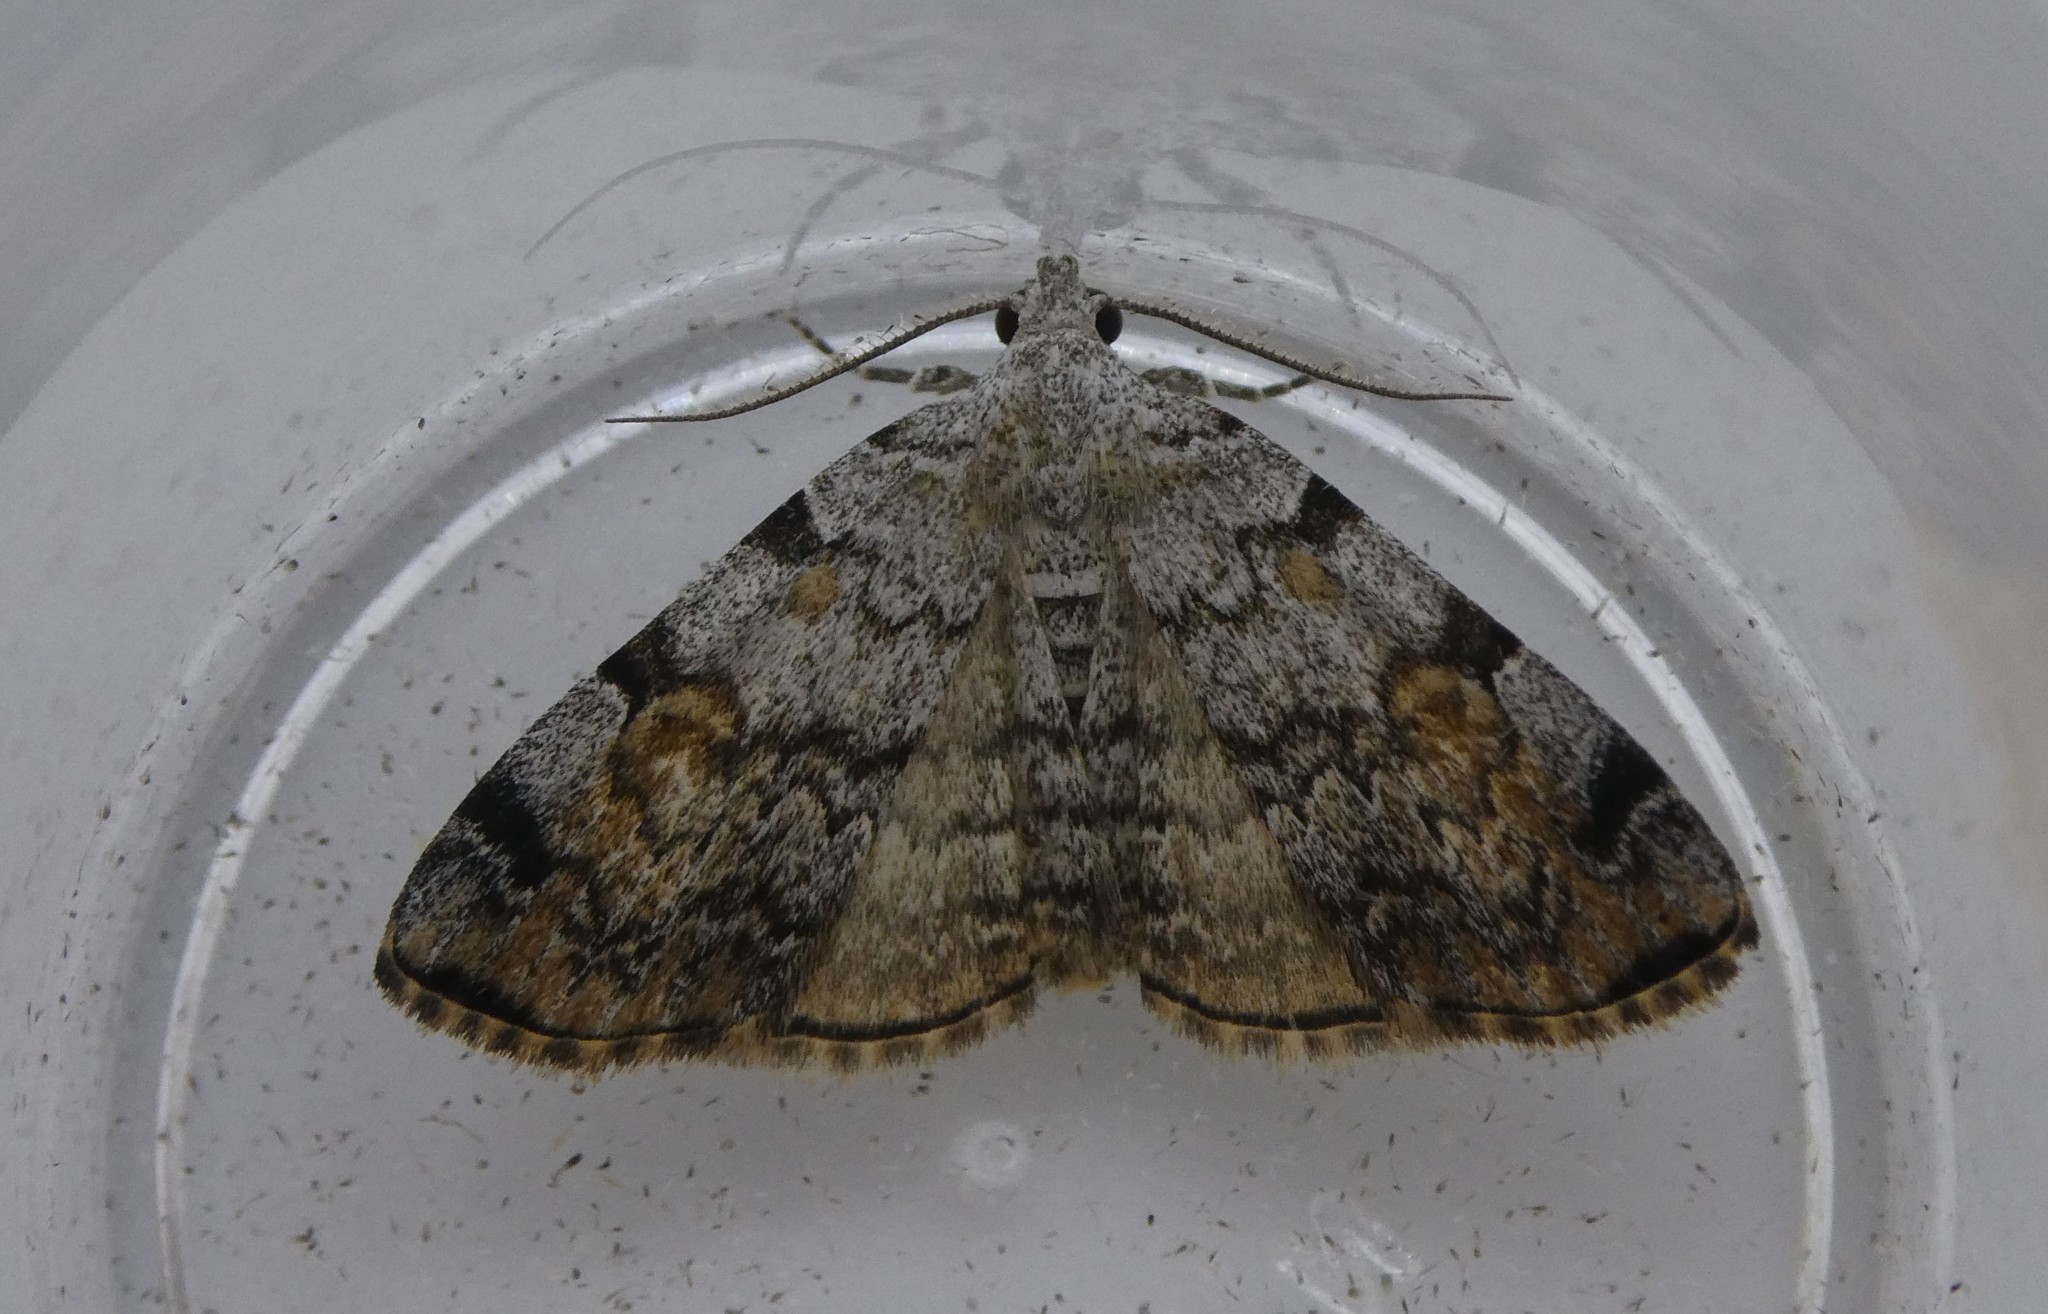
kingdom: Animalia
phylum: Arthropoda
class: Insecta
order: Lepidoptera
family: Erebidae
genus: Idia
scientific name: Idia americalis
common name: American idia moth
